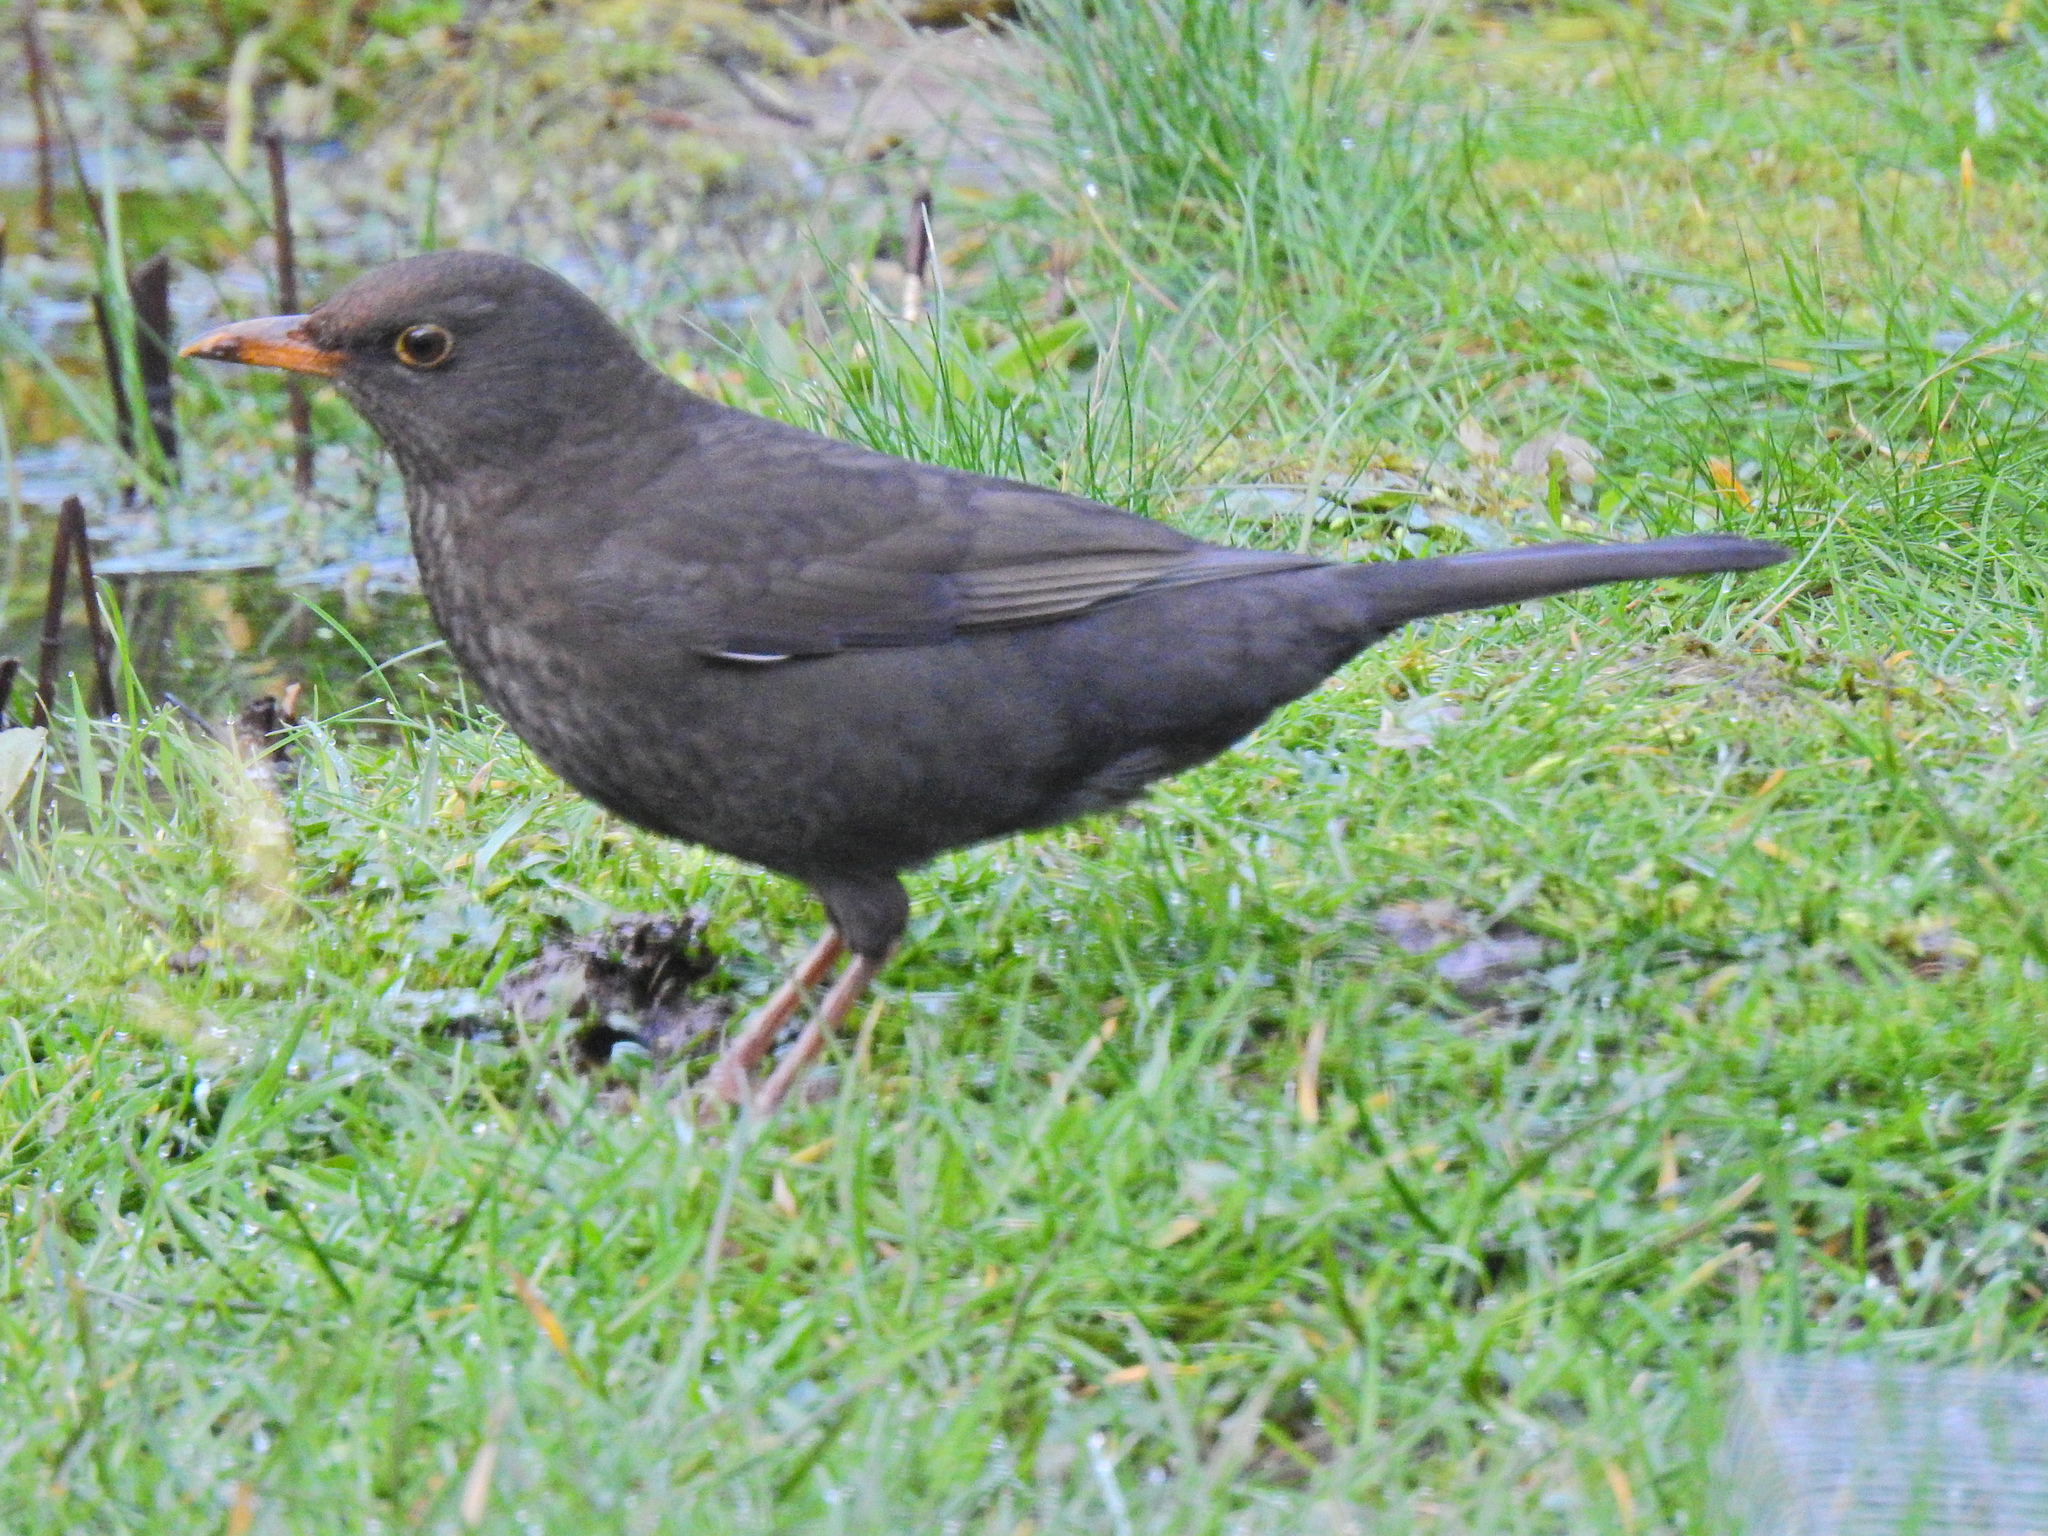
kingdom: Animalia
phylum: Chordata
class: Aves
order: Passeriformes
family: Turdidae
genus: Turdus
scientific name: Turdus merula
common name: Common blackbird
